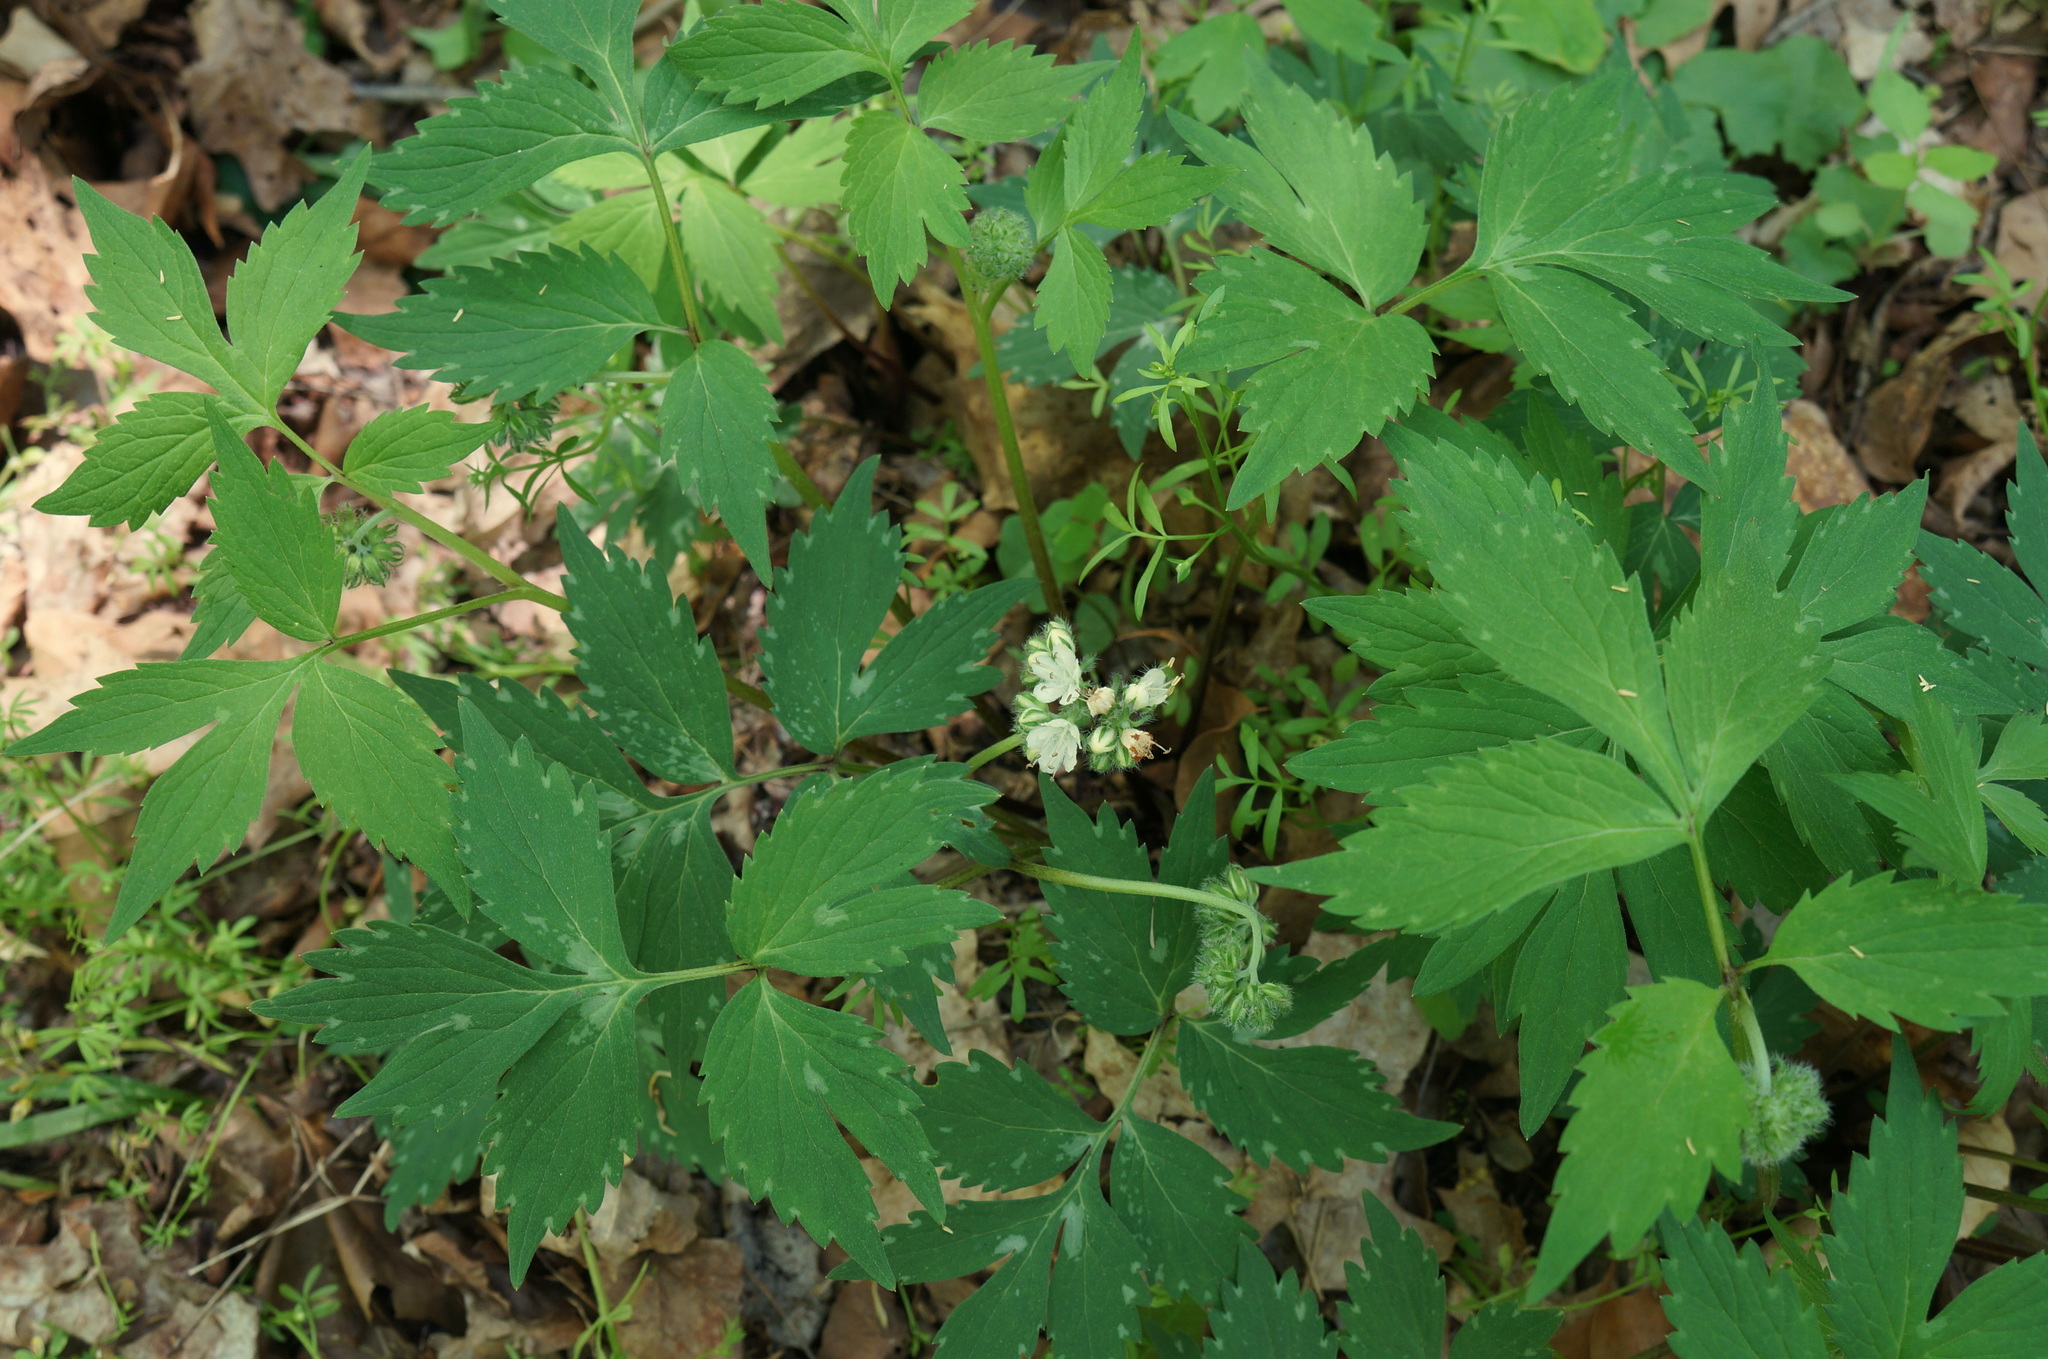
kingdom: Plantae
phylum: Tracheophyta
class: Magnoliopsida
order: Boraginales
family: Hydrophyllaceae
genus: Hydrophyllum
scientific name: Hydrophyllum virginianum
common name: Virginia waterleaf
